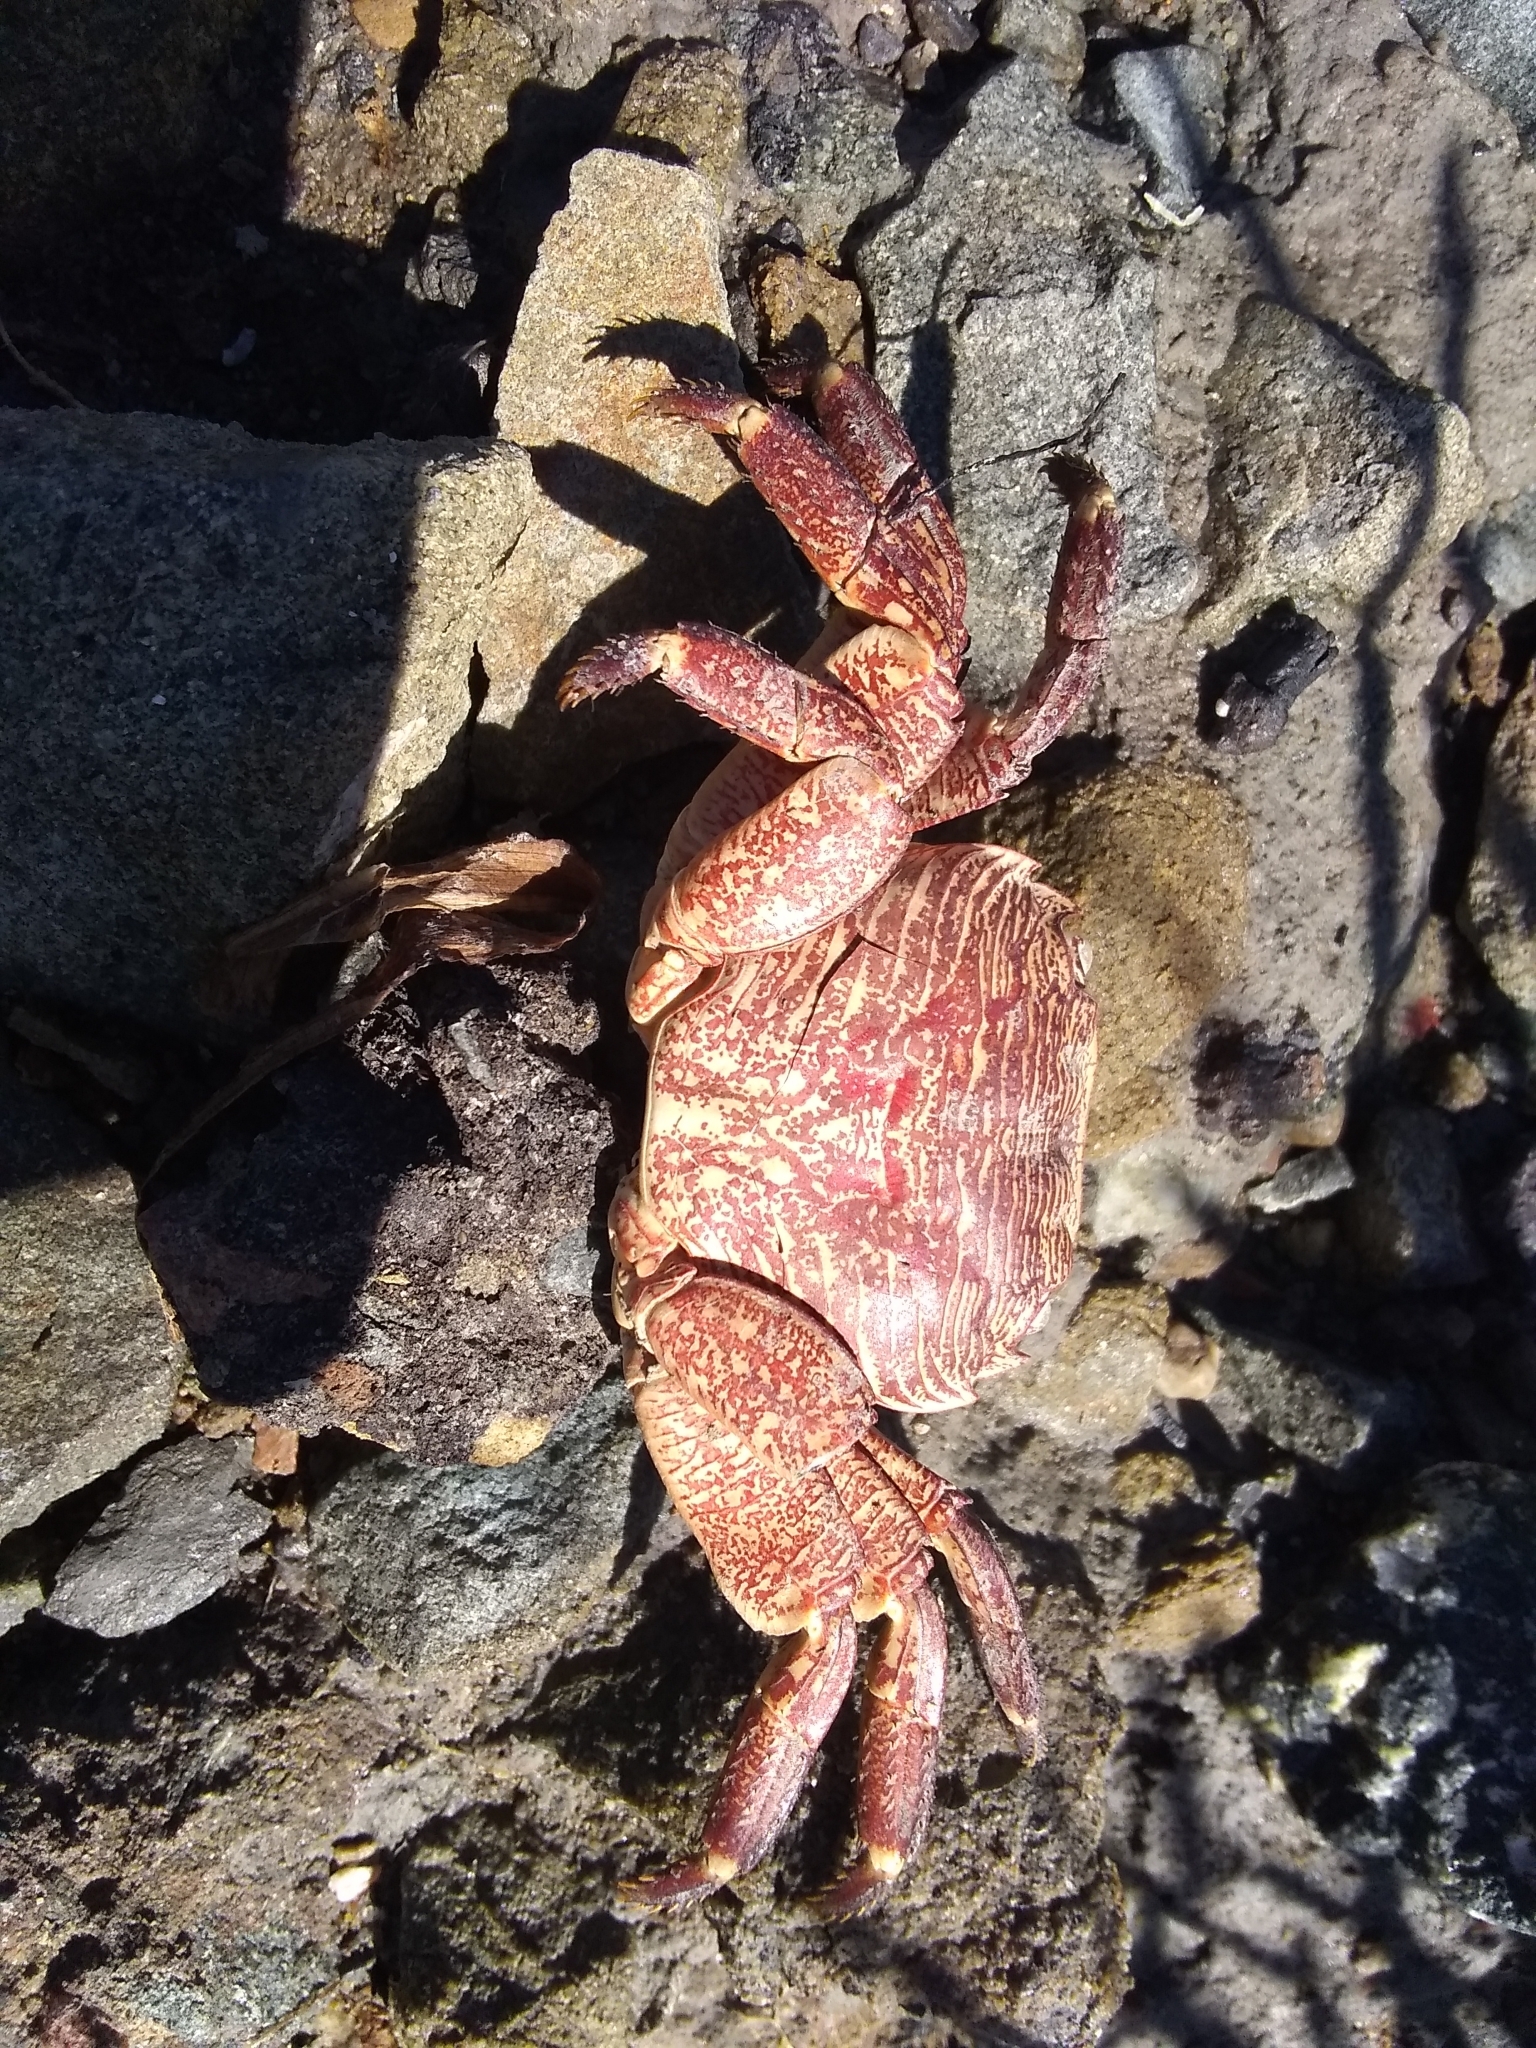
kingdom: Animalia
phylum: Arthropoda
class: Malacostraca
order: Decapoda
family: Grapsidae
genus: Pachygrapsus
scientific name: Pachygrapsus crassipes
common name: Striped shore crab
